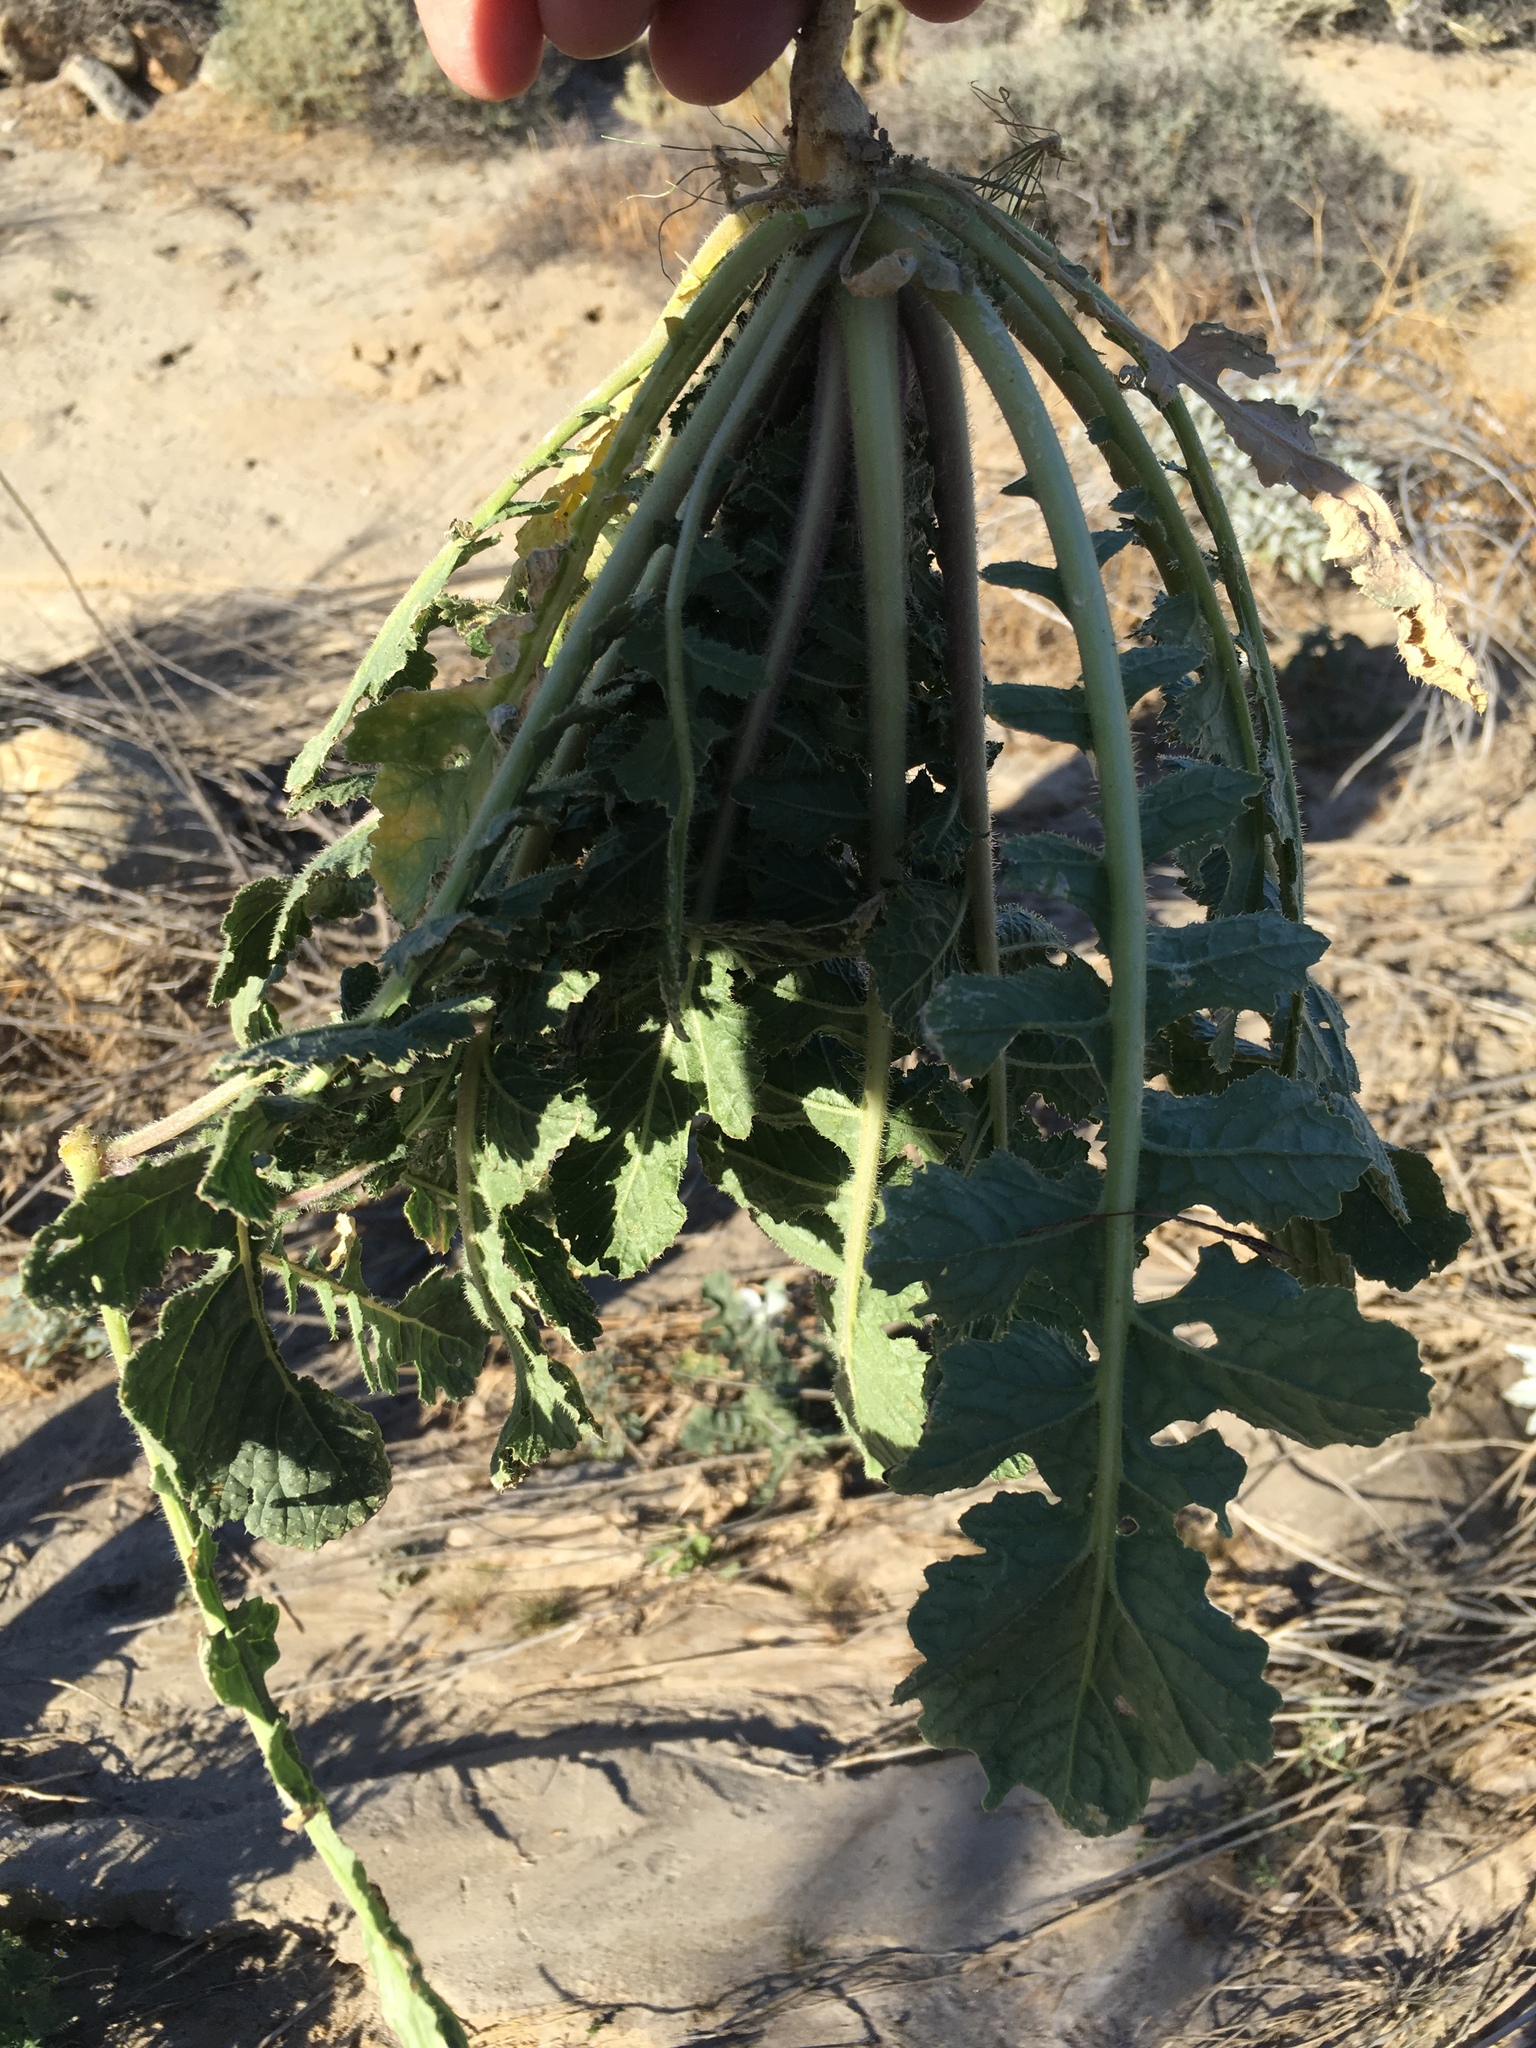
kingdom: Plantae
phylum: Tracheophyta
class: Magnoliopsida
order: Brassicales
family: Brassicaceae
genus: Brassica
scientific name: Brassica tournefortii
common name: Pale cabbage
